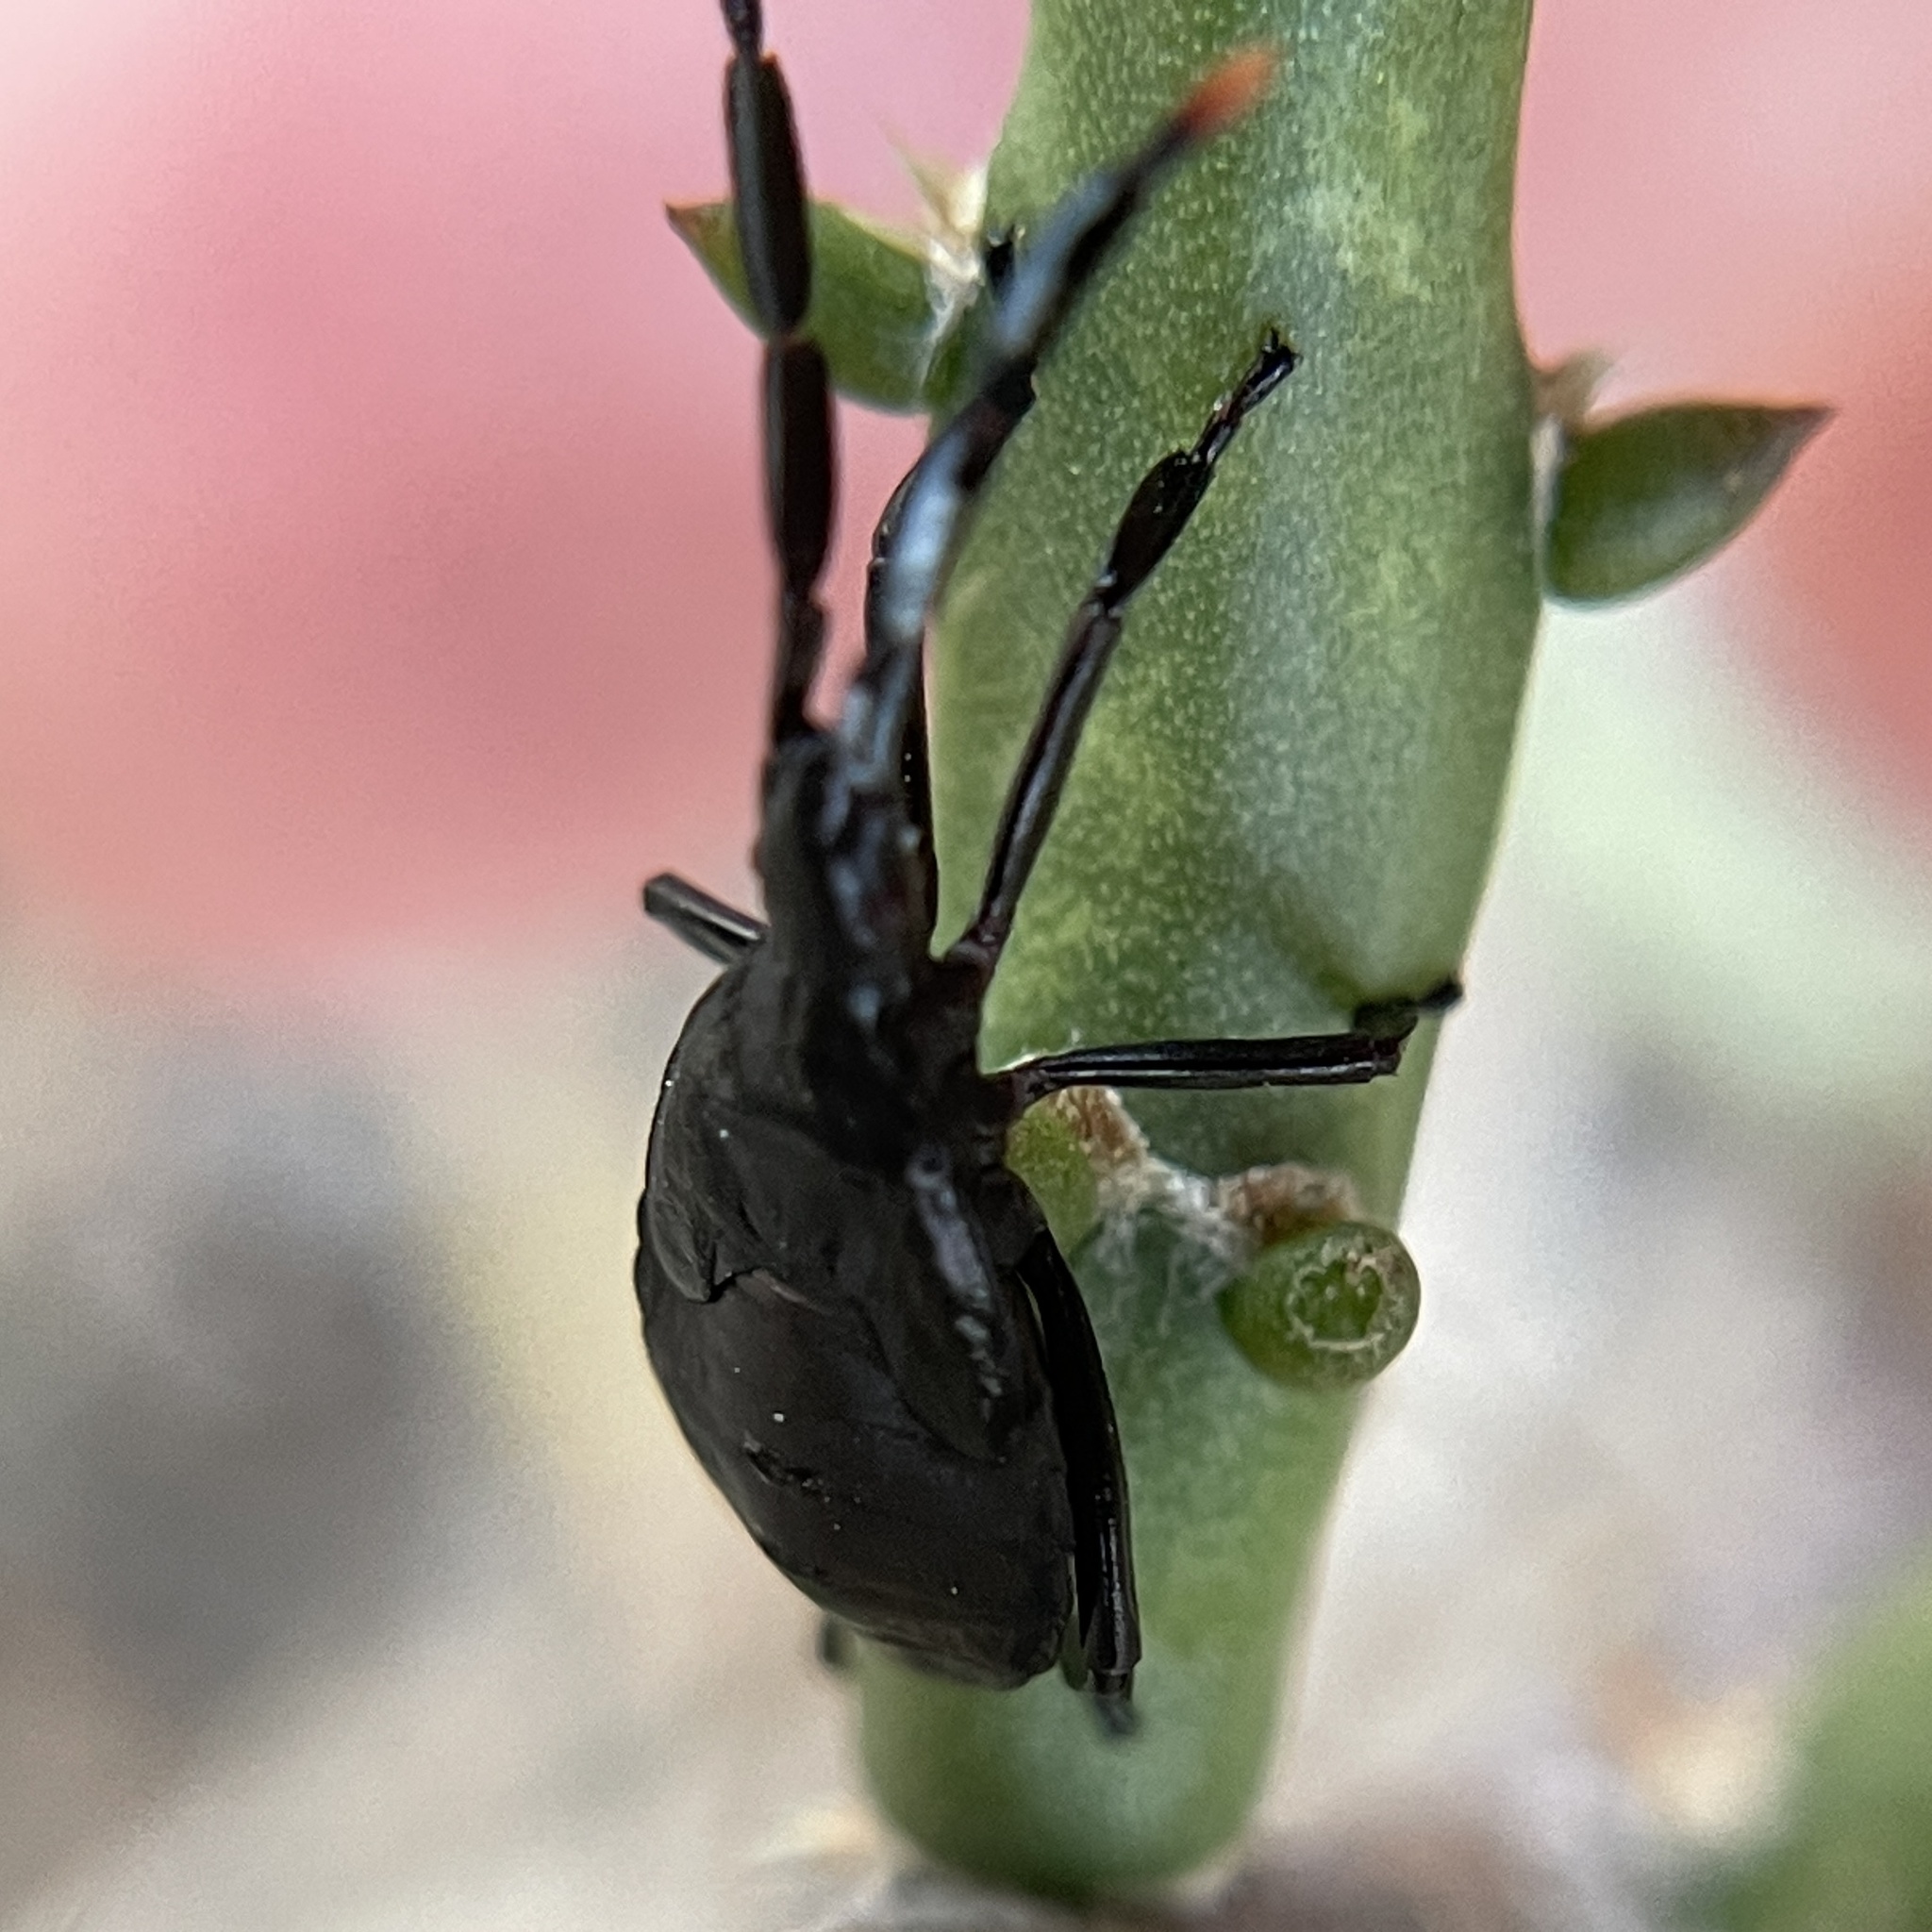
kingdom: Animalia
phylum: Arthropoda
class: Insecta
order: Hemiptera
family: Coreidae
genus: Chelinidea
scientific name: Chelinidea vittiger
